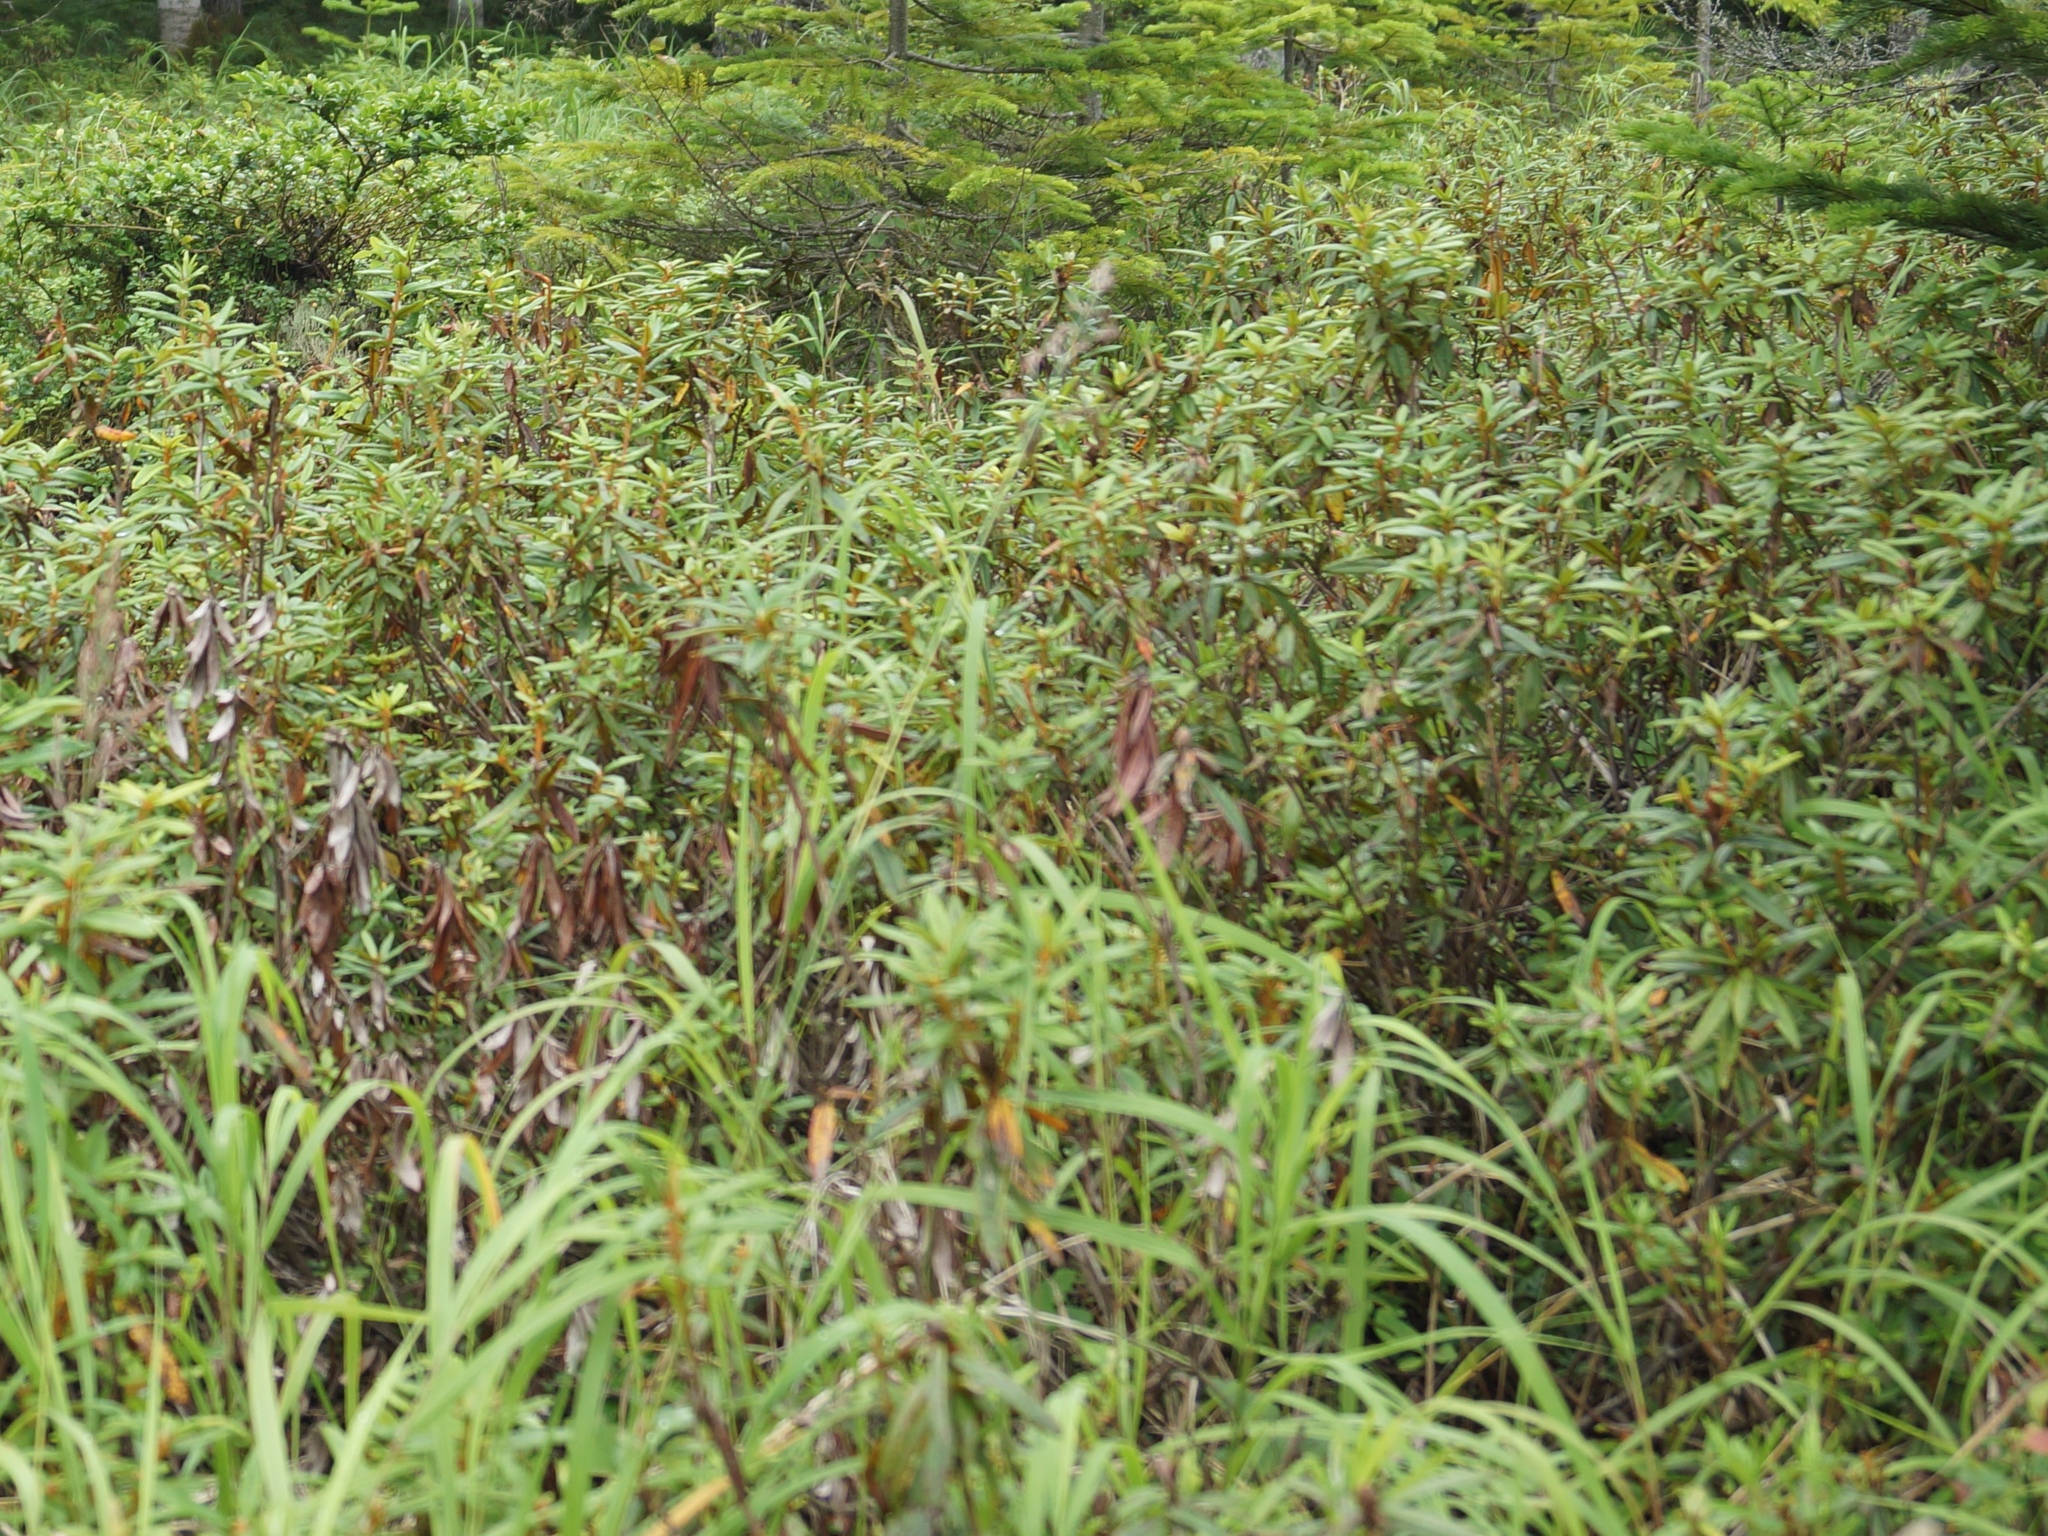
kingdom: Plantae
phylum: Tracheophyta
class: Magnoliopsida
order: Ericales
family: Ericaceae
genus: Rhododendron
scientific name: Rhododendron tomentosum
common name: Marsh labrador tea
